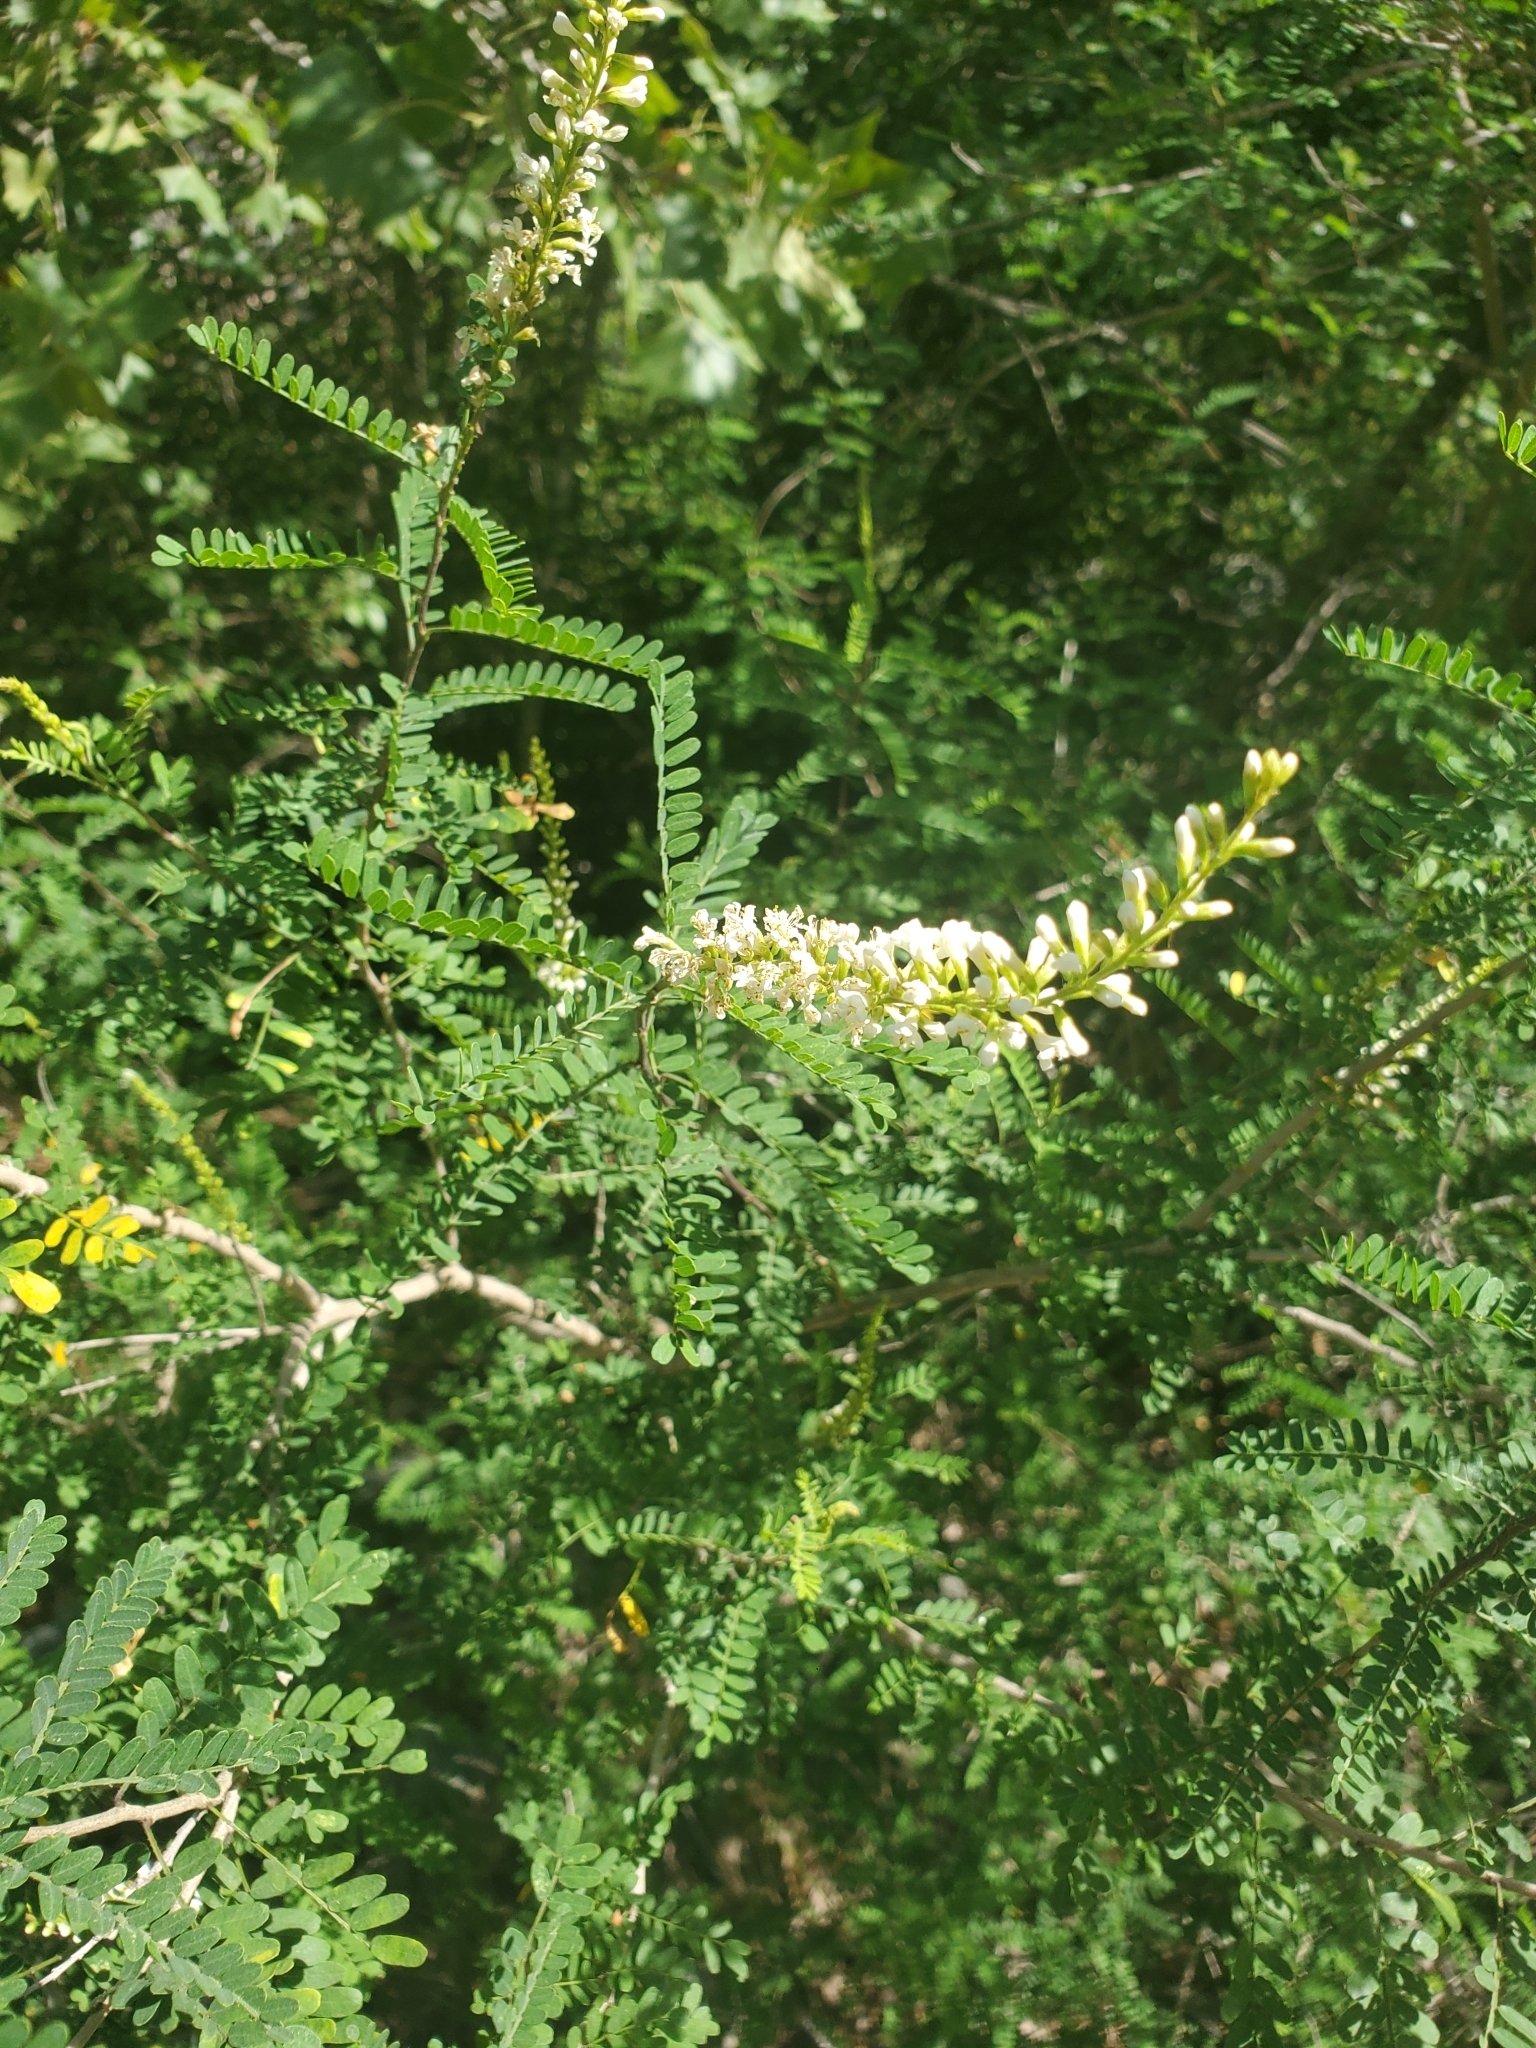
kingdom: Plantae
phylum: Tracheophyta
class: Magnoliopsida
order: Fabales
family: Fabaceae
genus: Eysenhardtia
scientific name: Eysenhardtia texana
